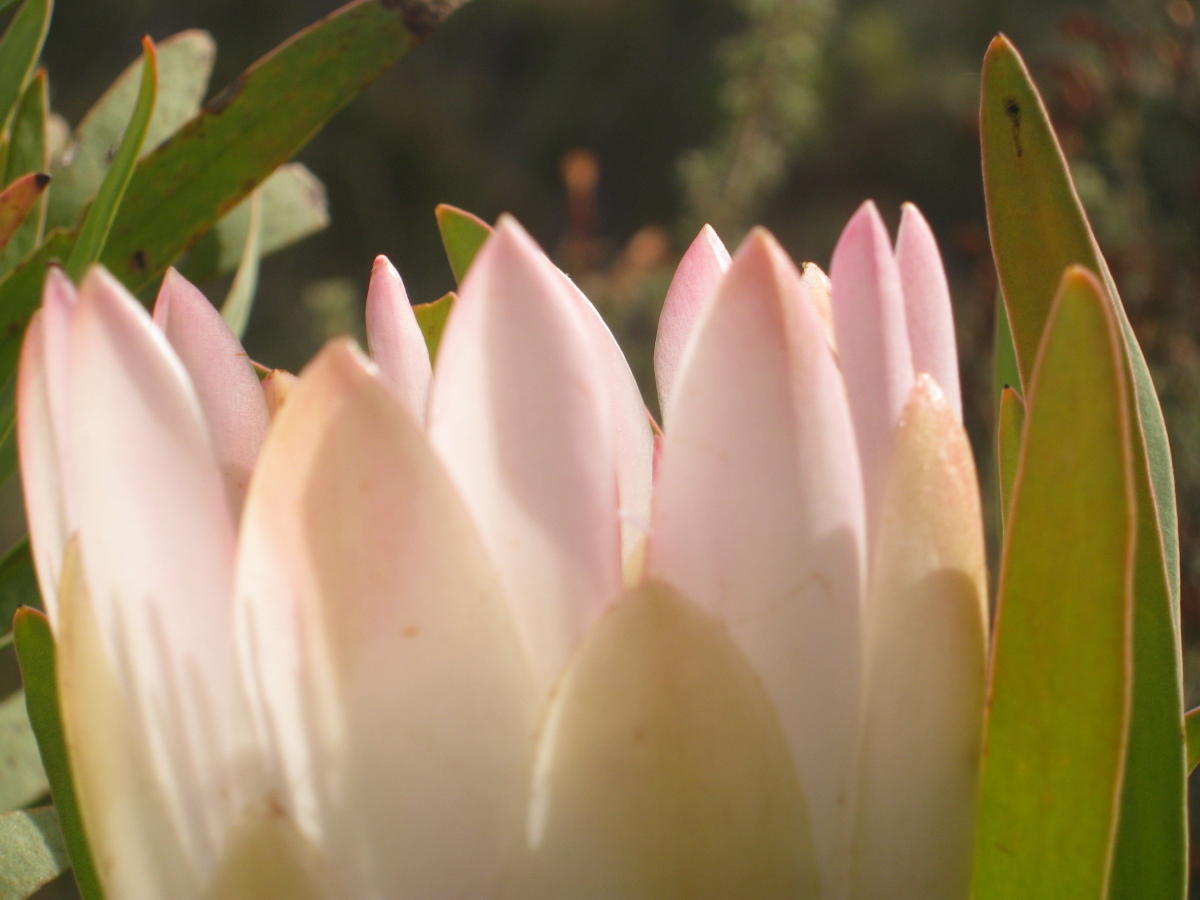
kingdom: Plantae
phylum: Tracheophyta
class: Magnoliopsida
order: Proteales
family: Proteaceae
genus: Protea
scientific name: Protea repens
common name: Sugarbush
